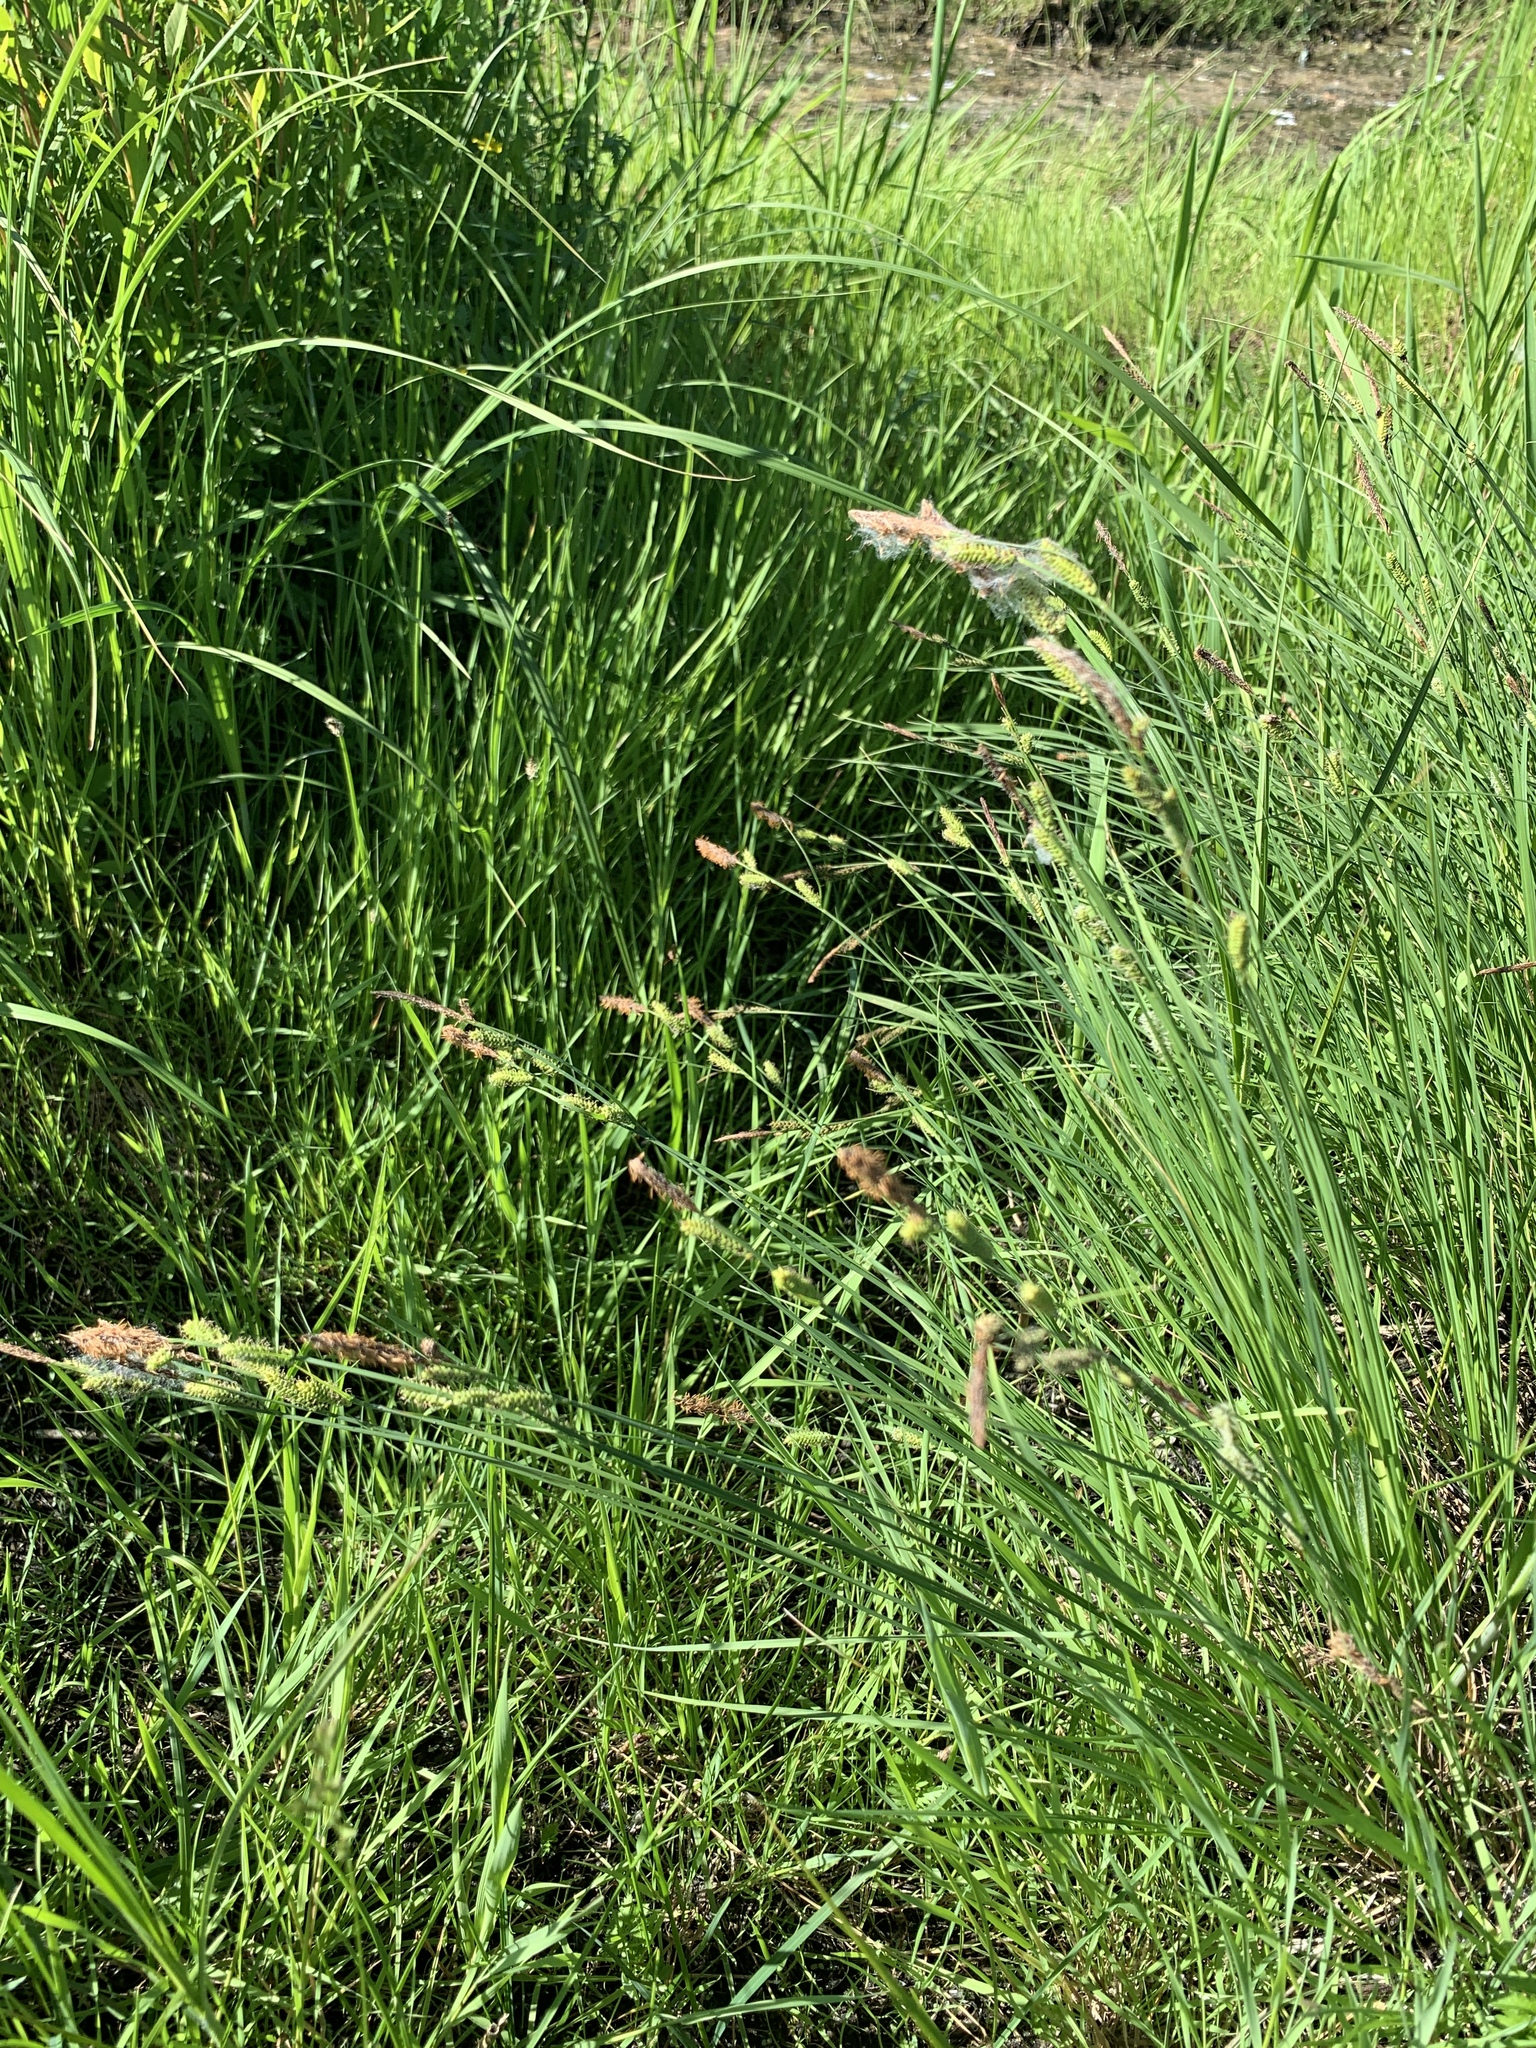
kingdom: Plantae
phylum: Tracheophyta
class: Liliopsida
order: Poales
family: Cyperaceae
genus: Carex
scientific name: Carex nigra
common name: Common sedge
